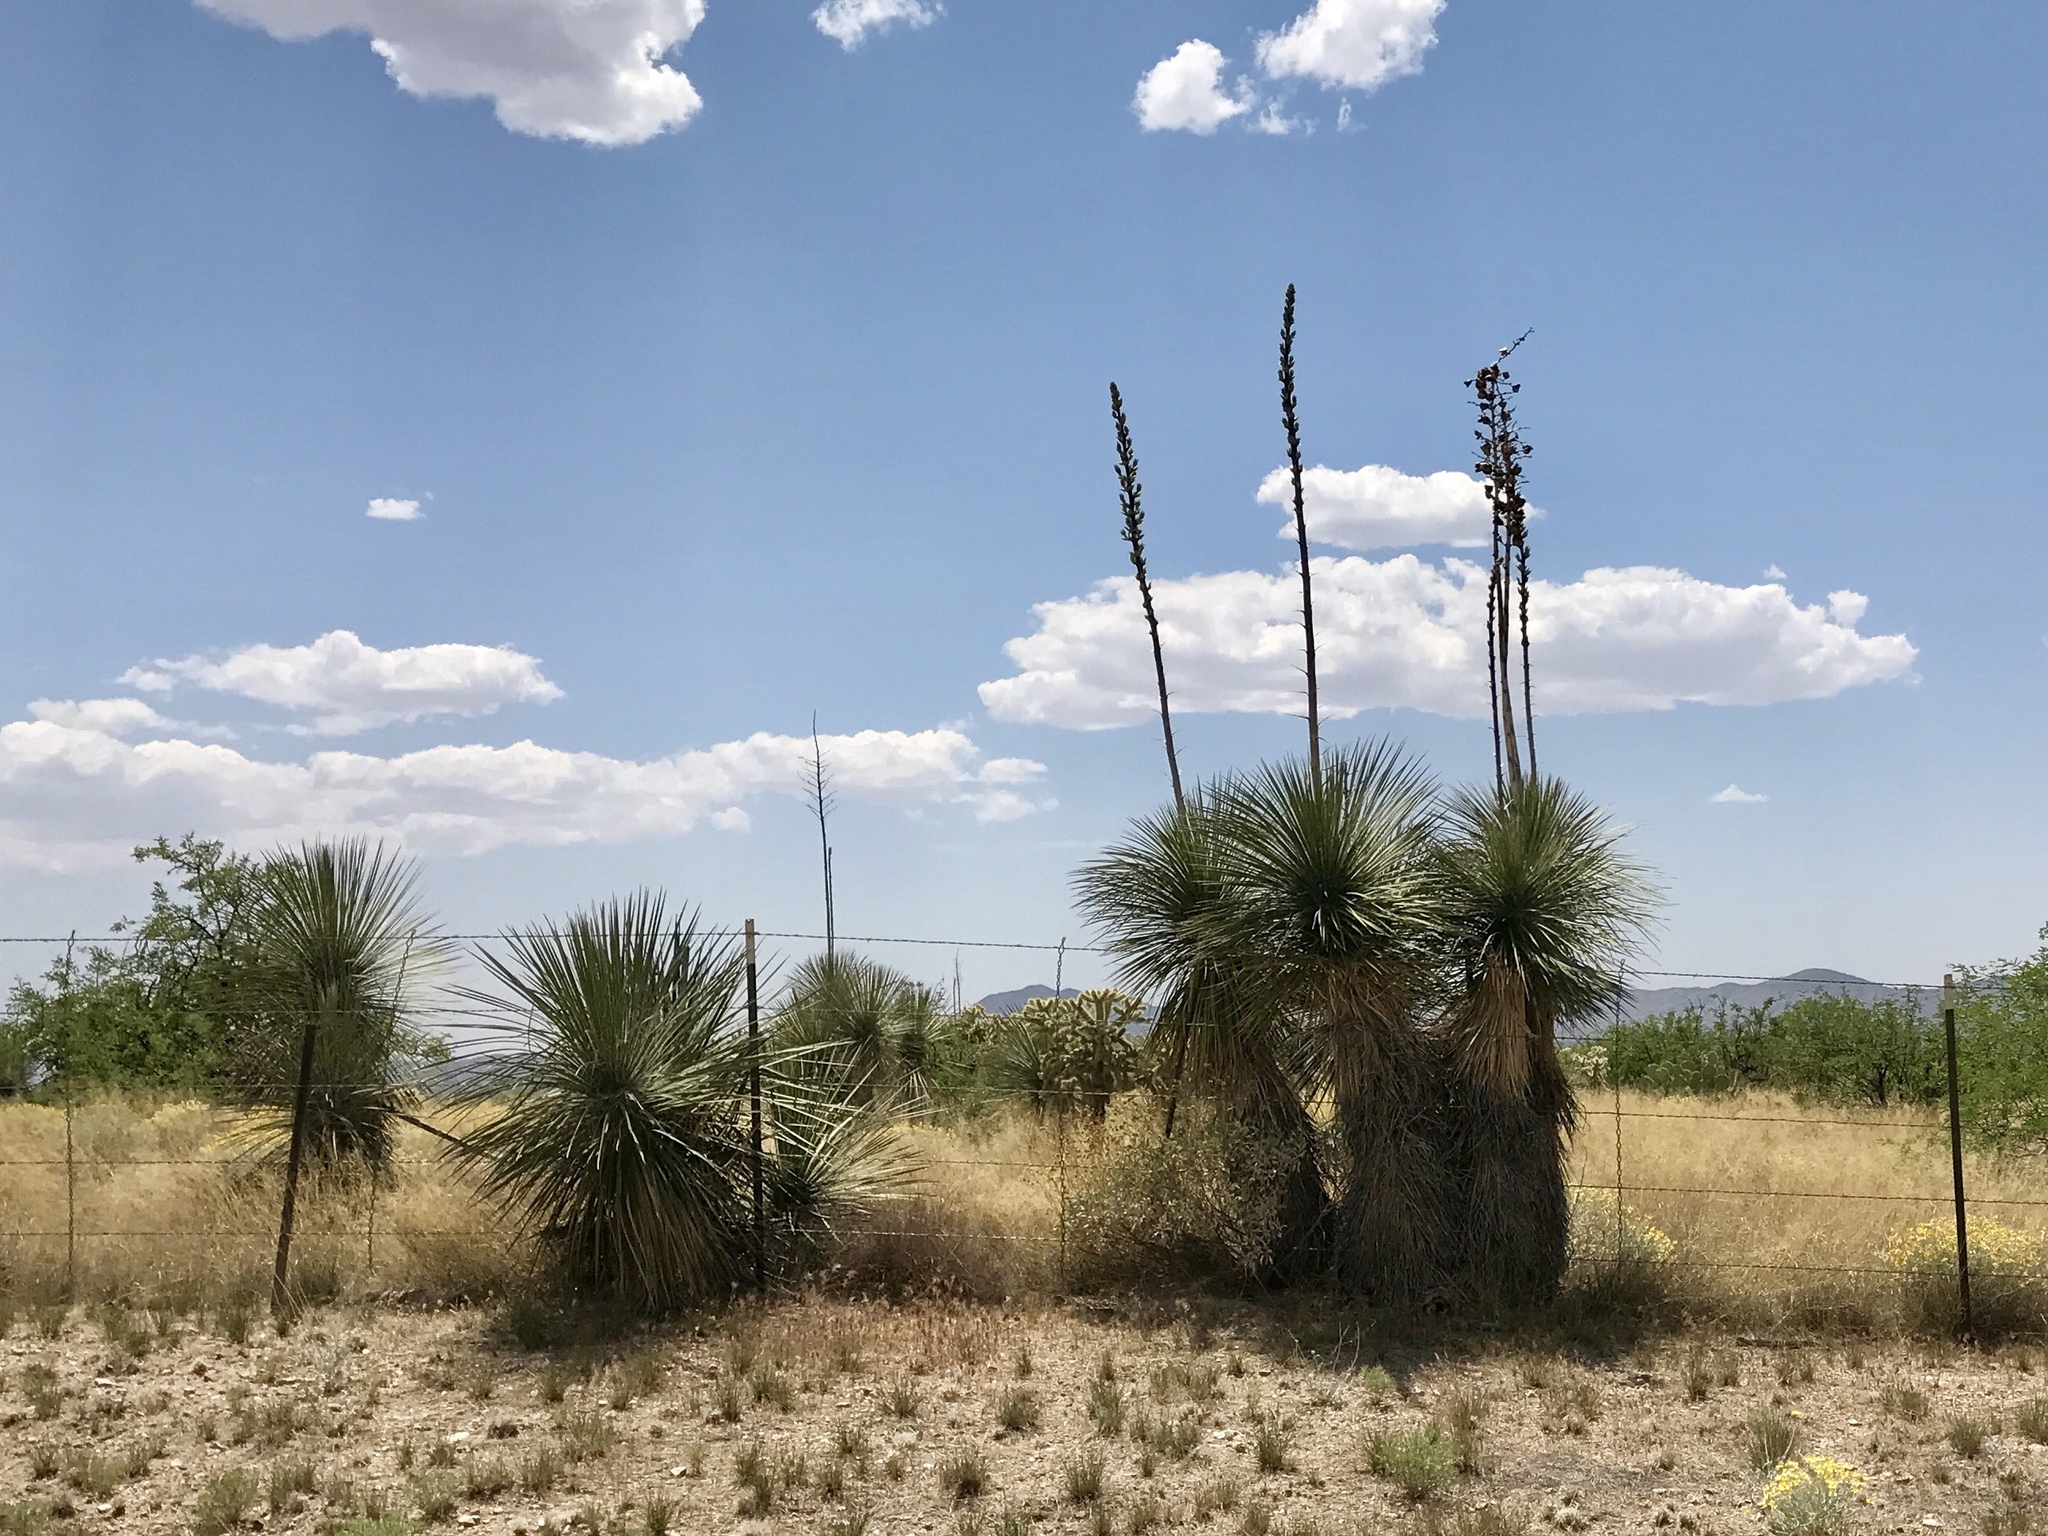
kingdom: Plantae
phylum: Tracheophyta
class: Liliopsida
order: Asparagales
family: Asparagaceae
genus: Yucca
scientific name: Yucca elata
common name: Palmella
